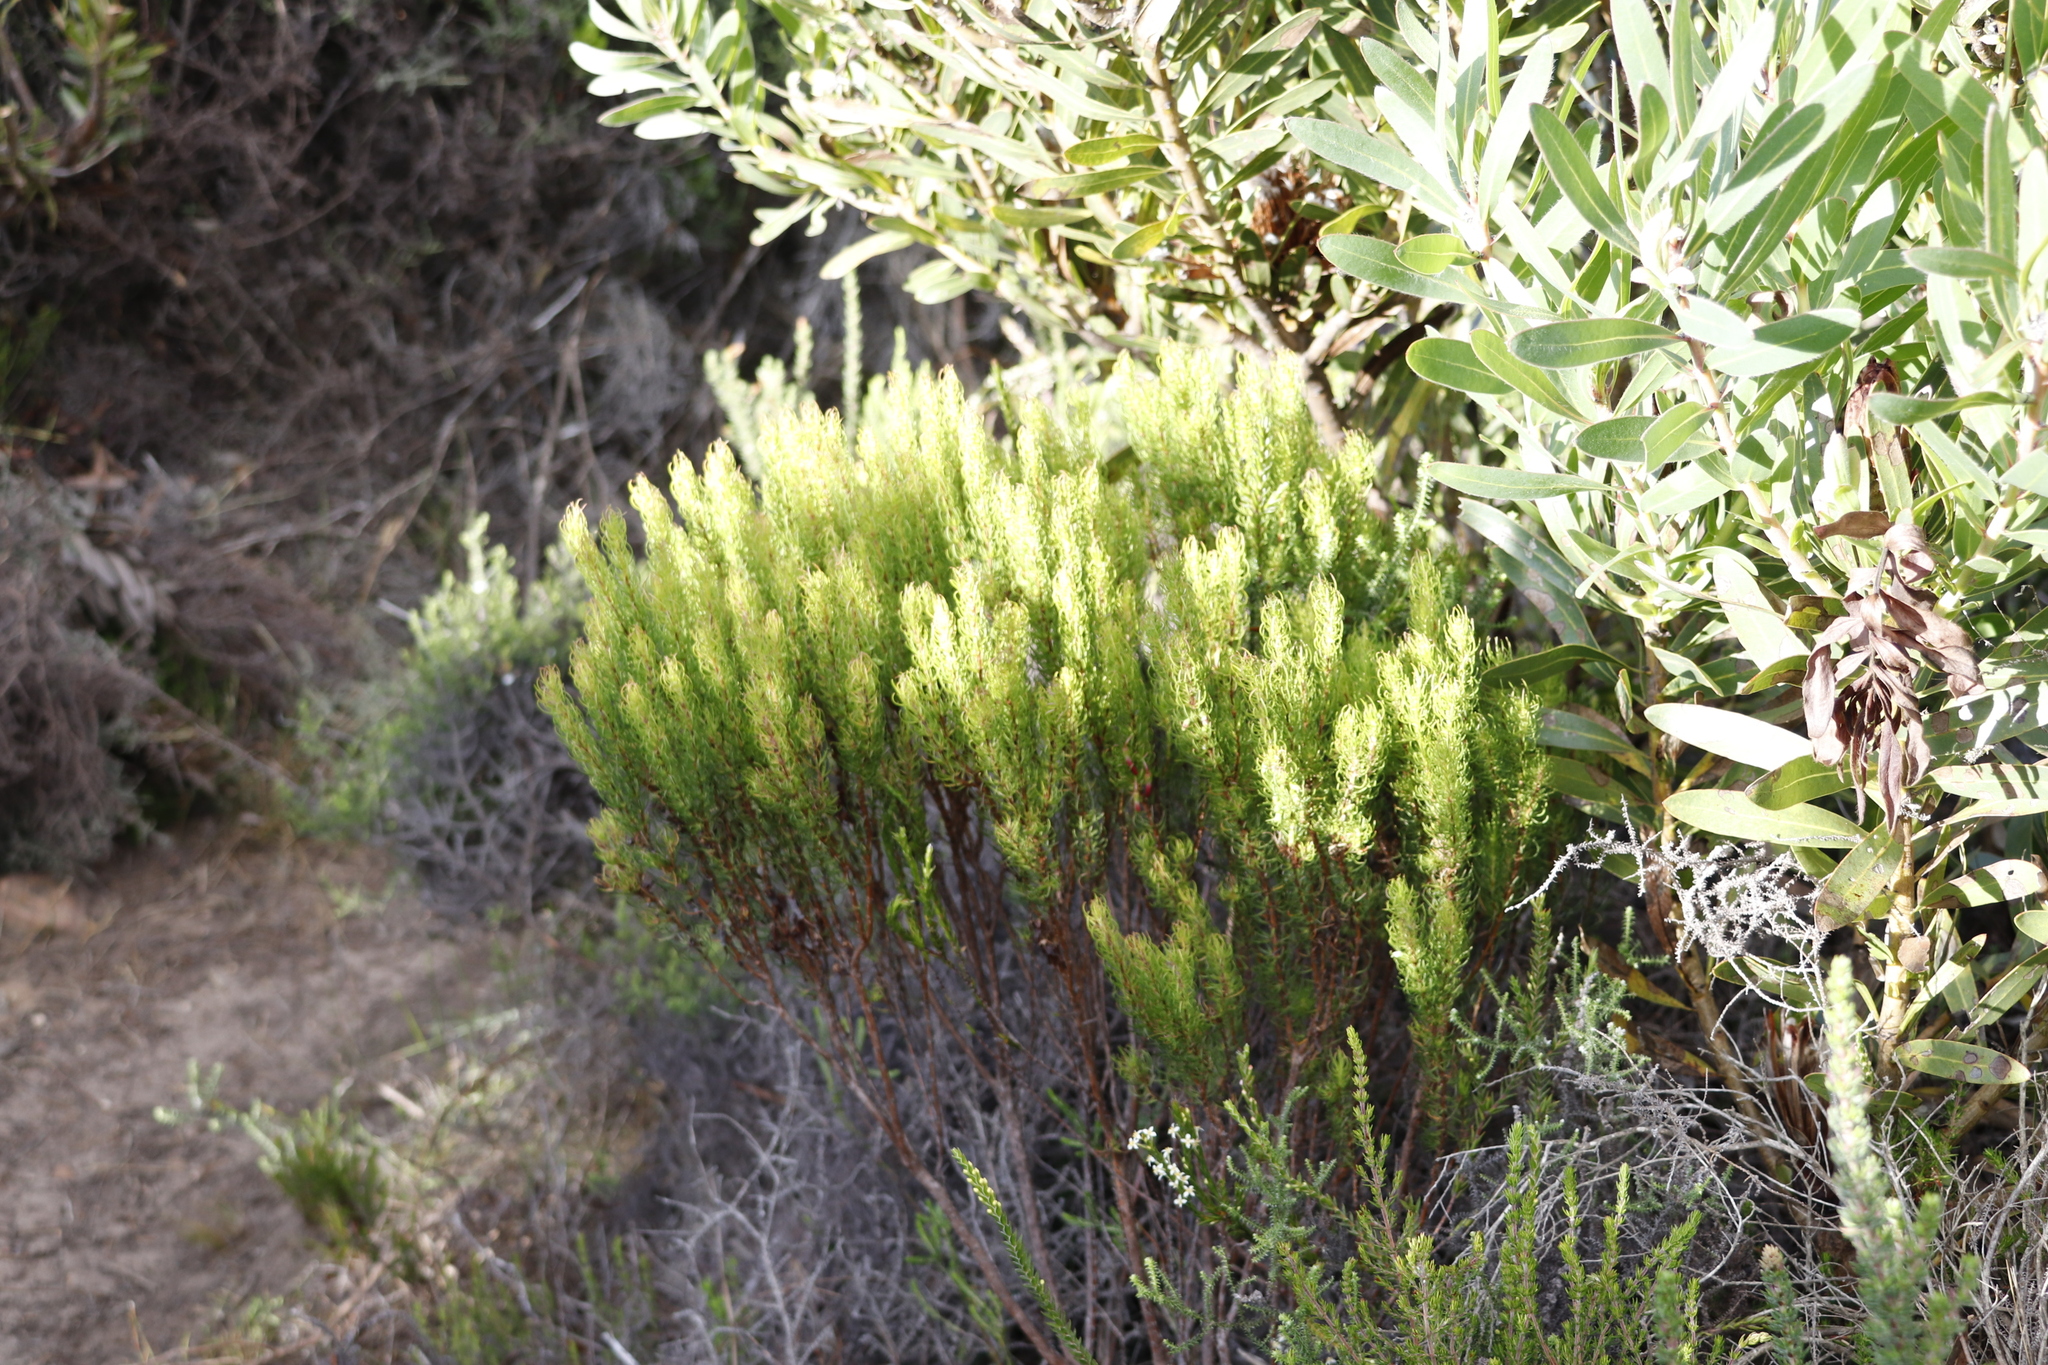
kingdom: Plantae
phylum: Tracheophyta
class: Magnoliopsida
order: Ericales
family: Ericaceae
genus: Erica
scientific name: Erica plukenetii
